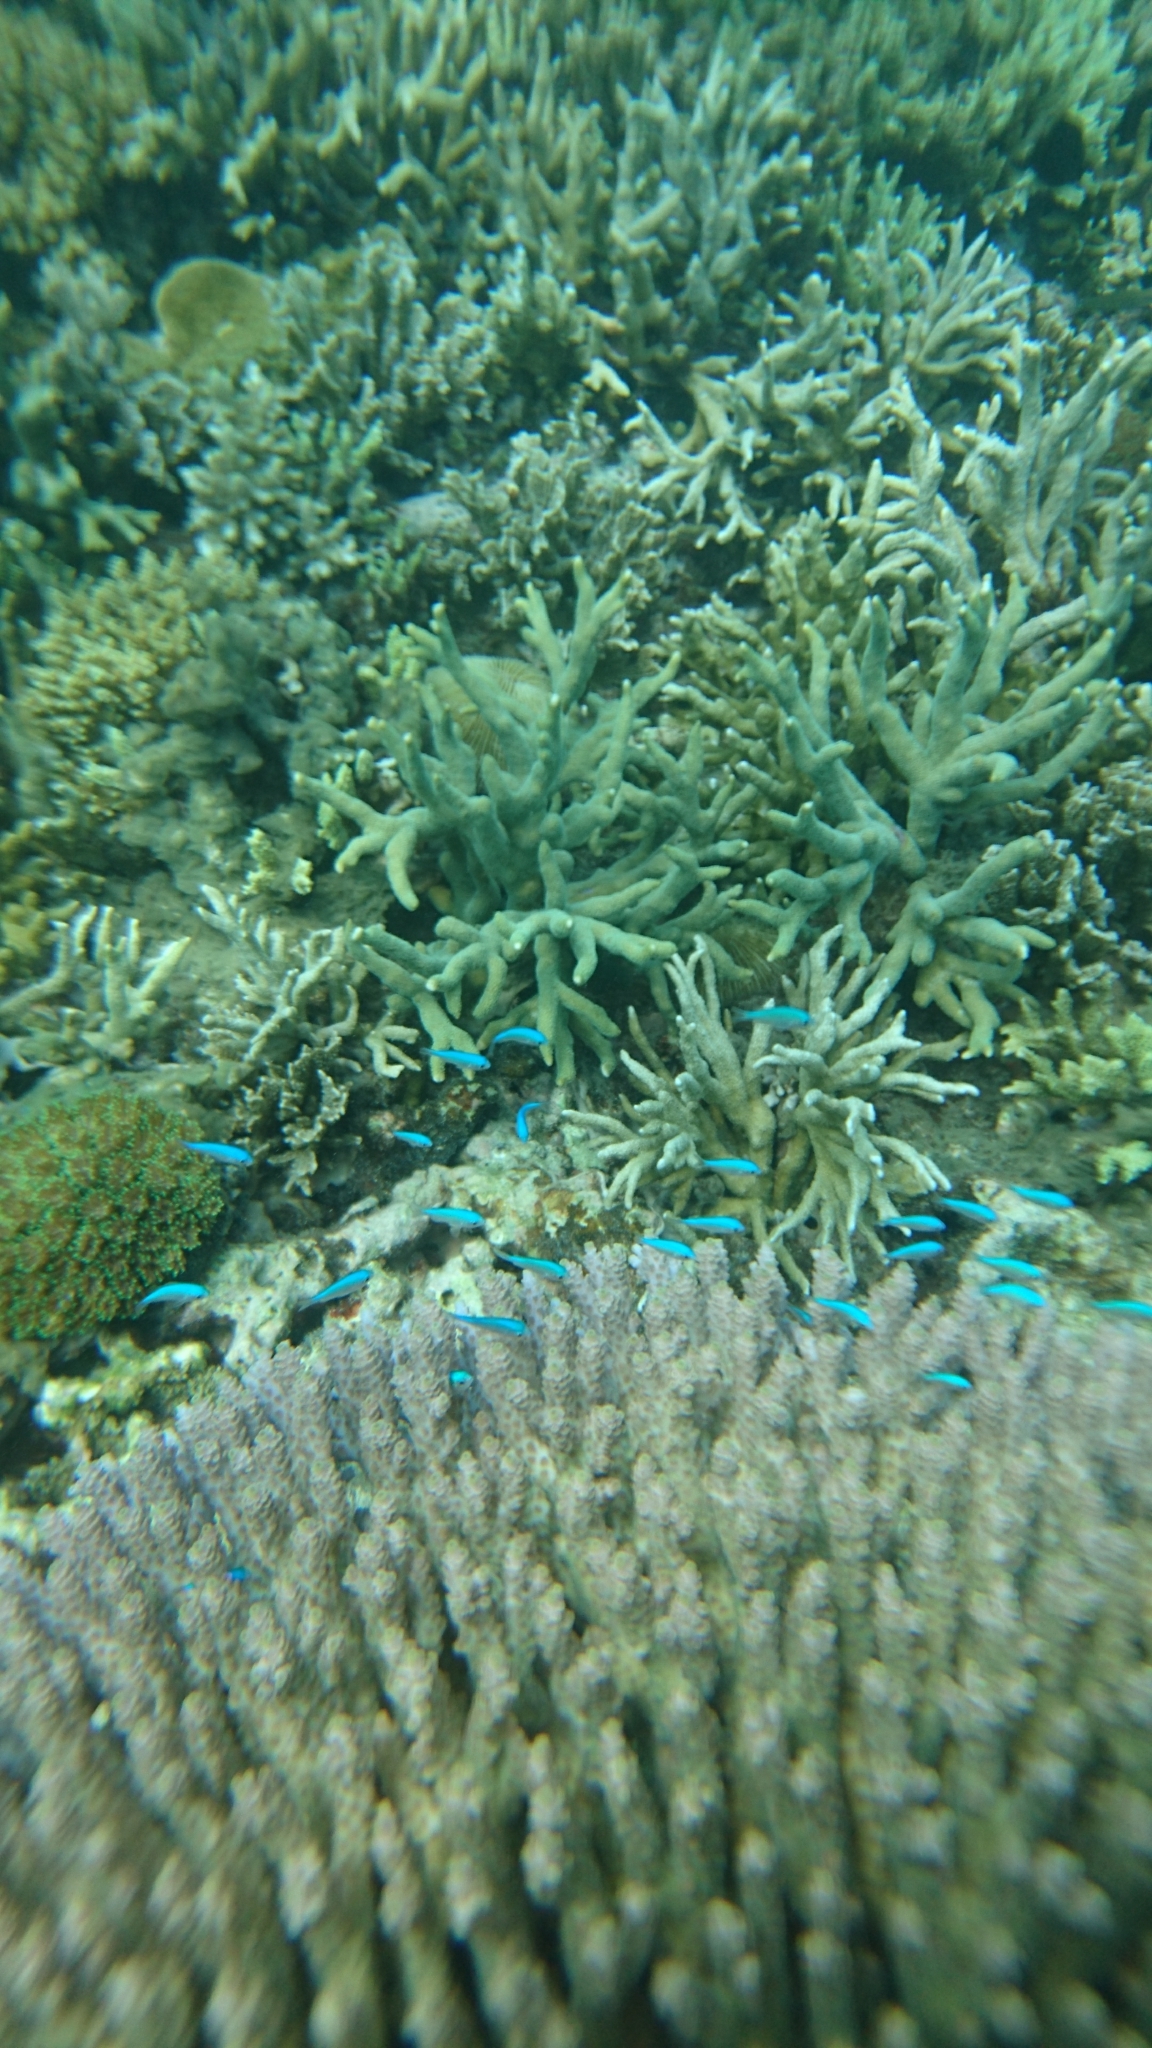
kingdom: Animalia
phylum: Chordata
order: Perciformes
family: Pomacentridae
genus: Chromis
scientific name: Chromis viridis
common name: Blue-green chromis
